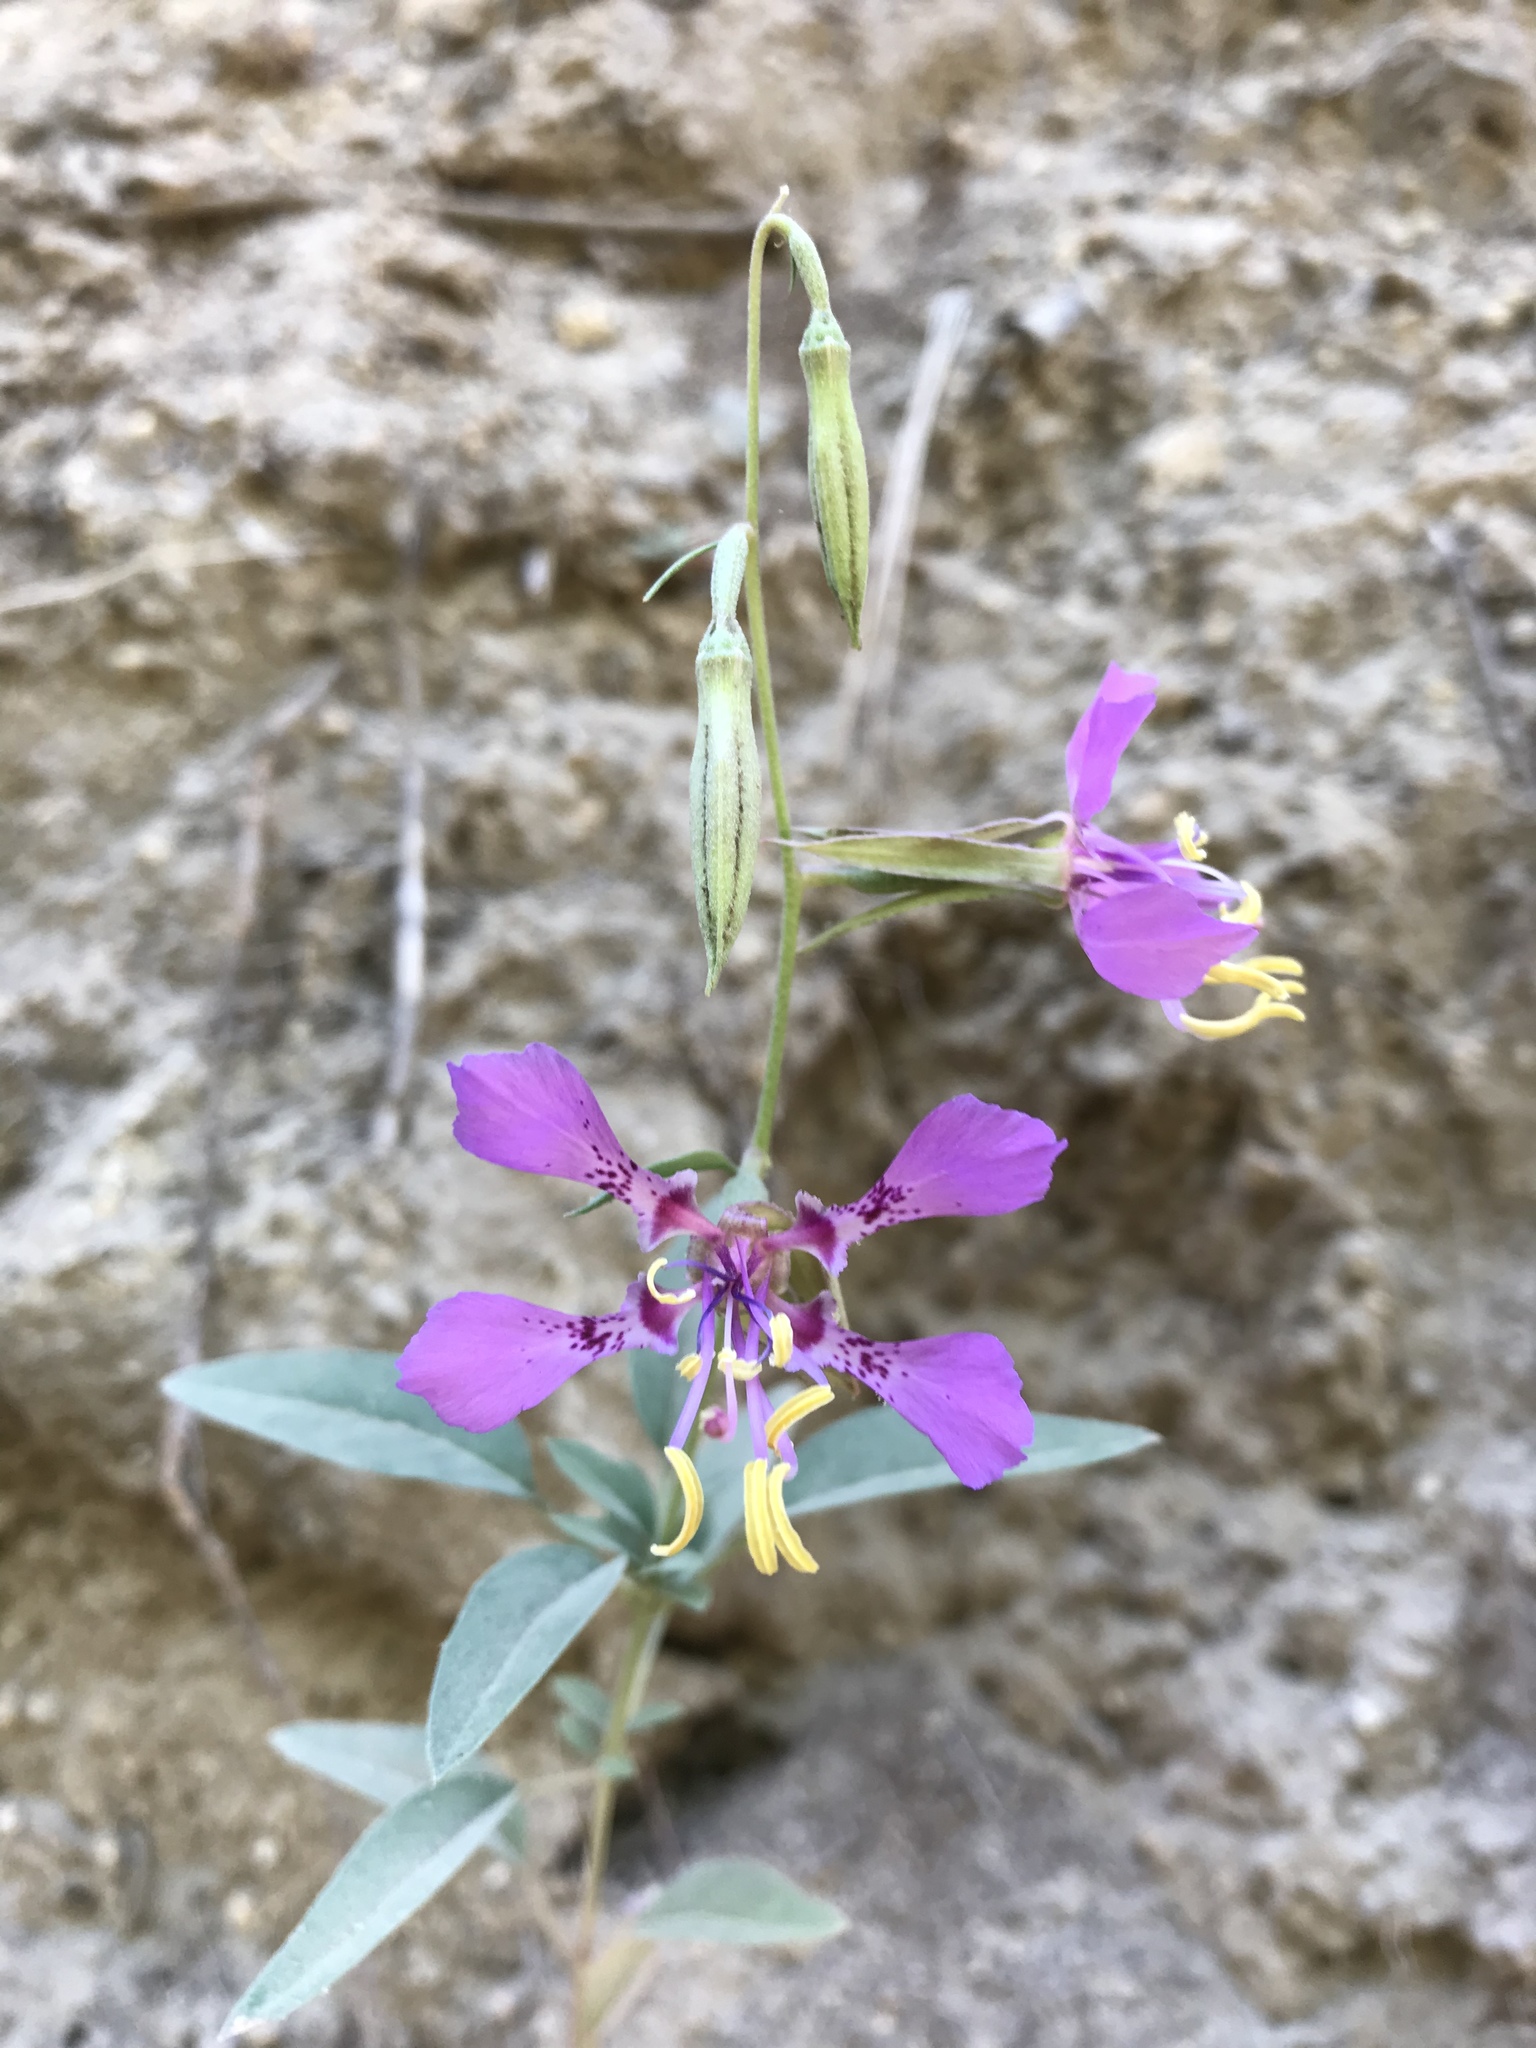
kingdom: Plantae
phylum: Tracheophyta
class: Magnoliopsida
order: Myrtales
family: Onagraceae
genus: Clarkia
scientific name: Clarkia mildrediae
